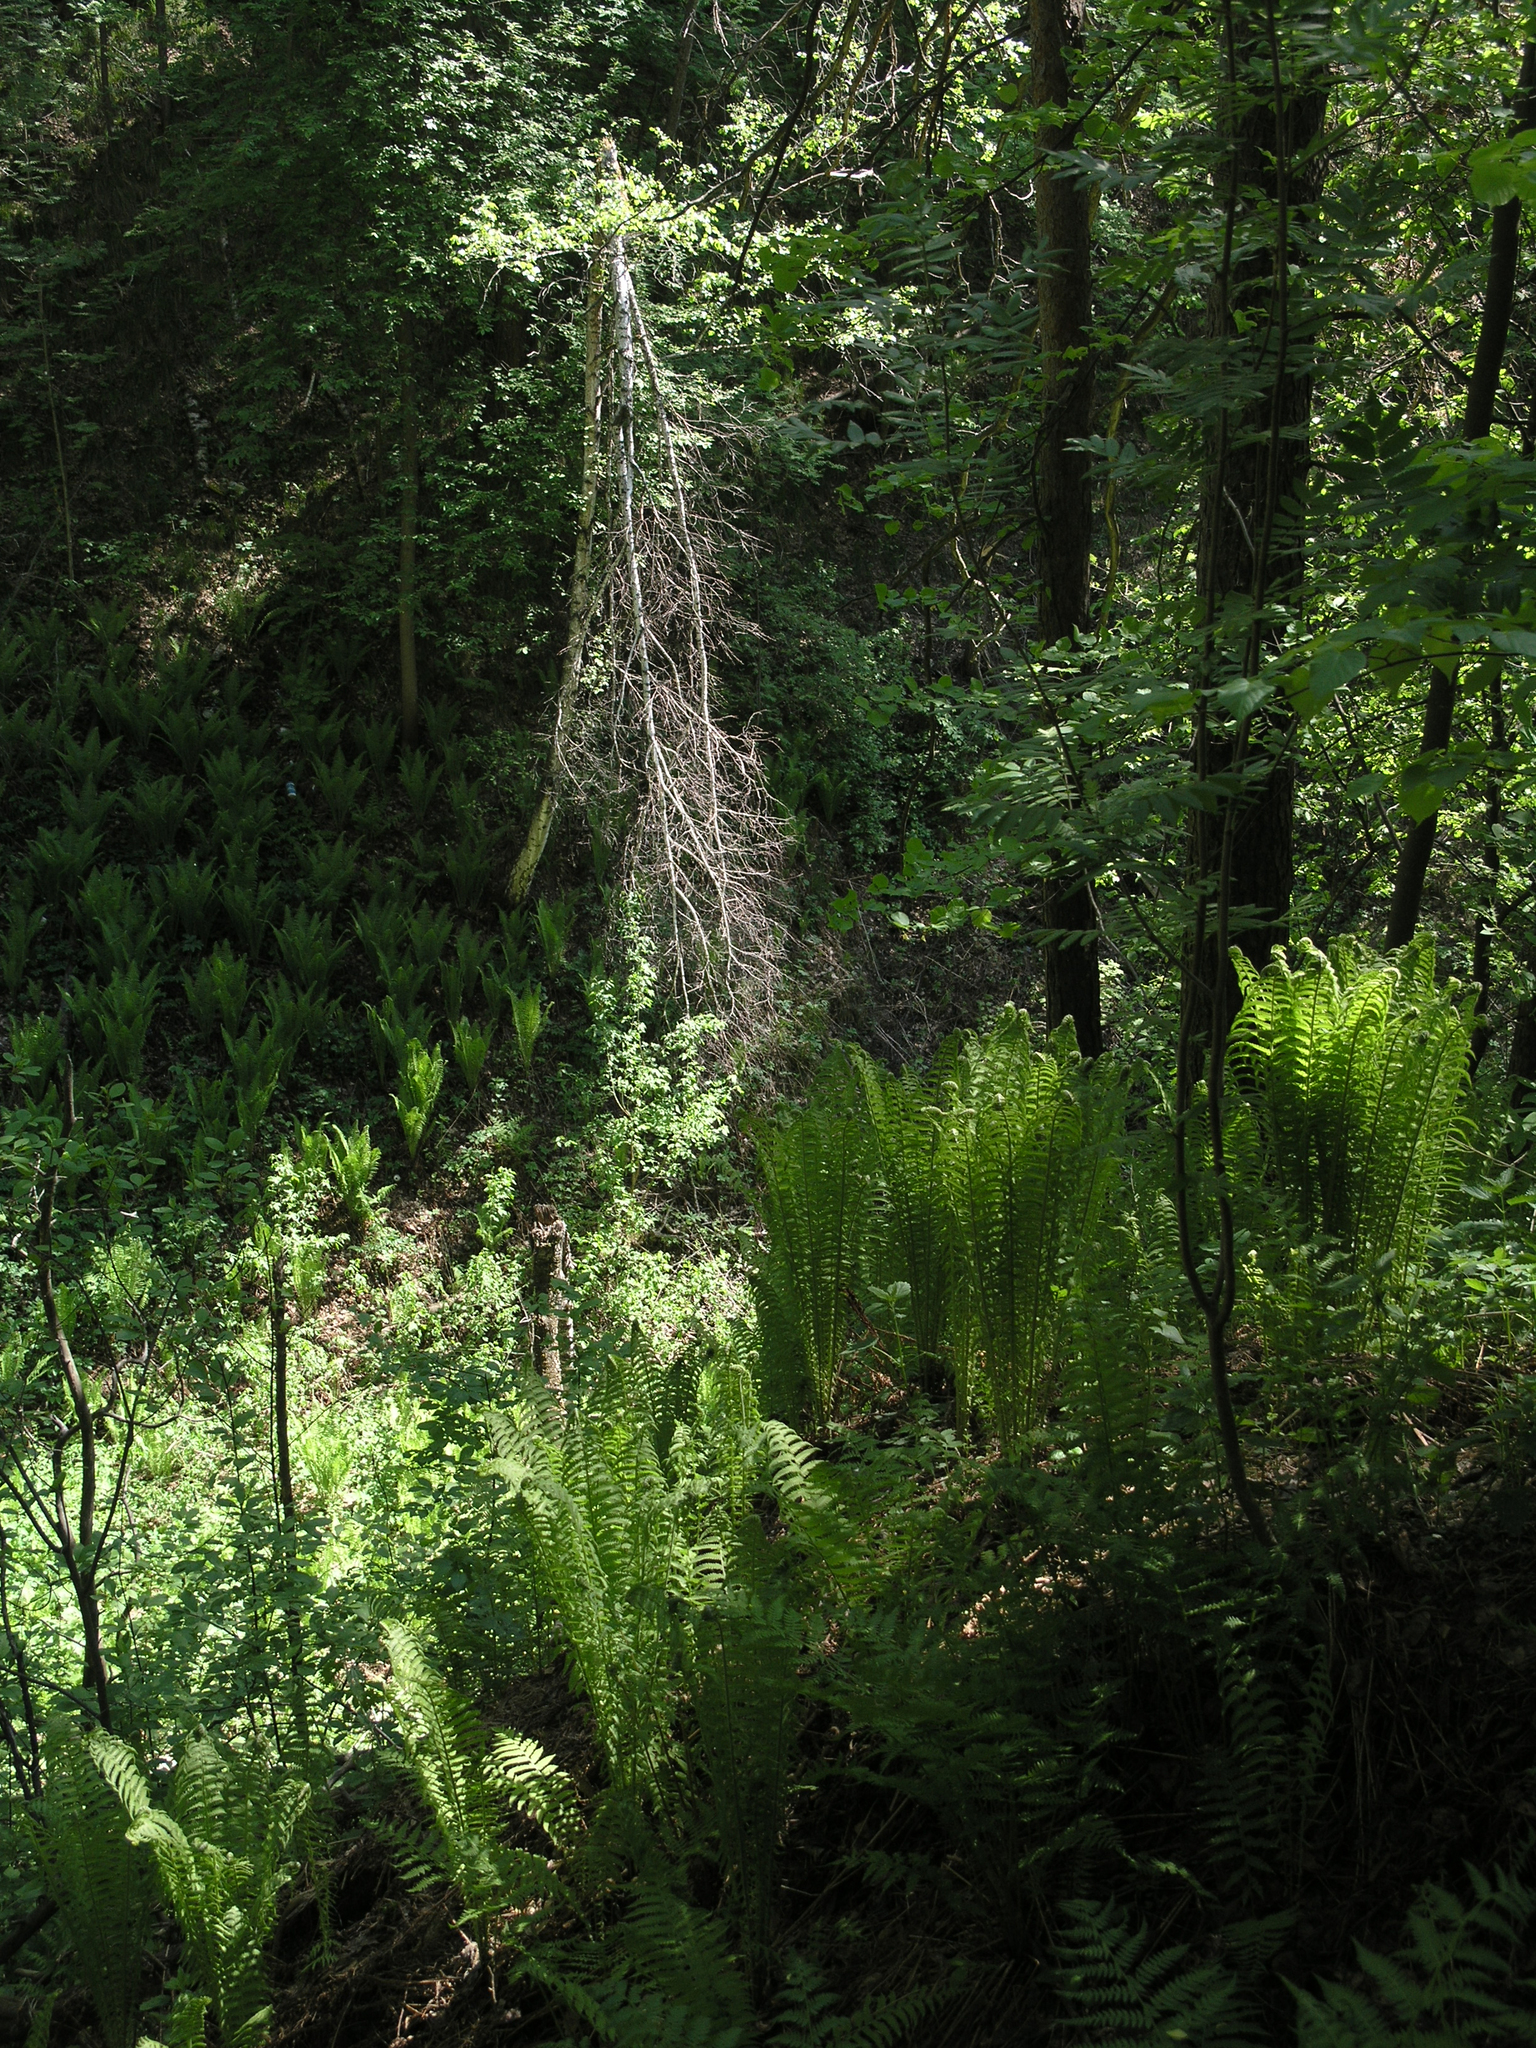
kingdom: Plantae
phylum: Tracheophyta
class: Polypodiopsida
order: Polypodiales
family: Onocleaceae
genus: Matteuccia
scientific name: Matteuccia struthiopteris
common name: Ostrich fern
